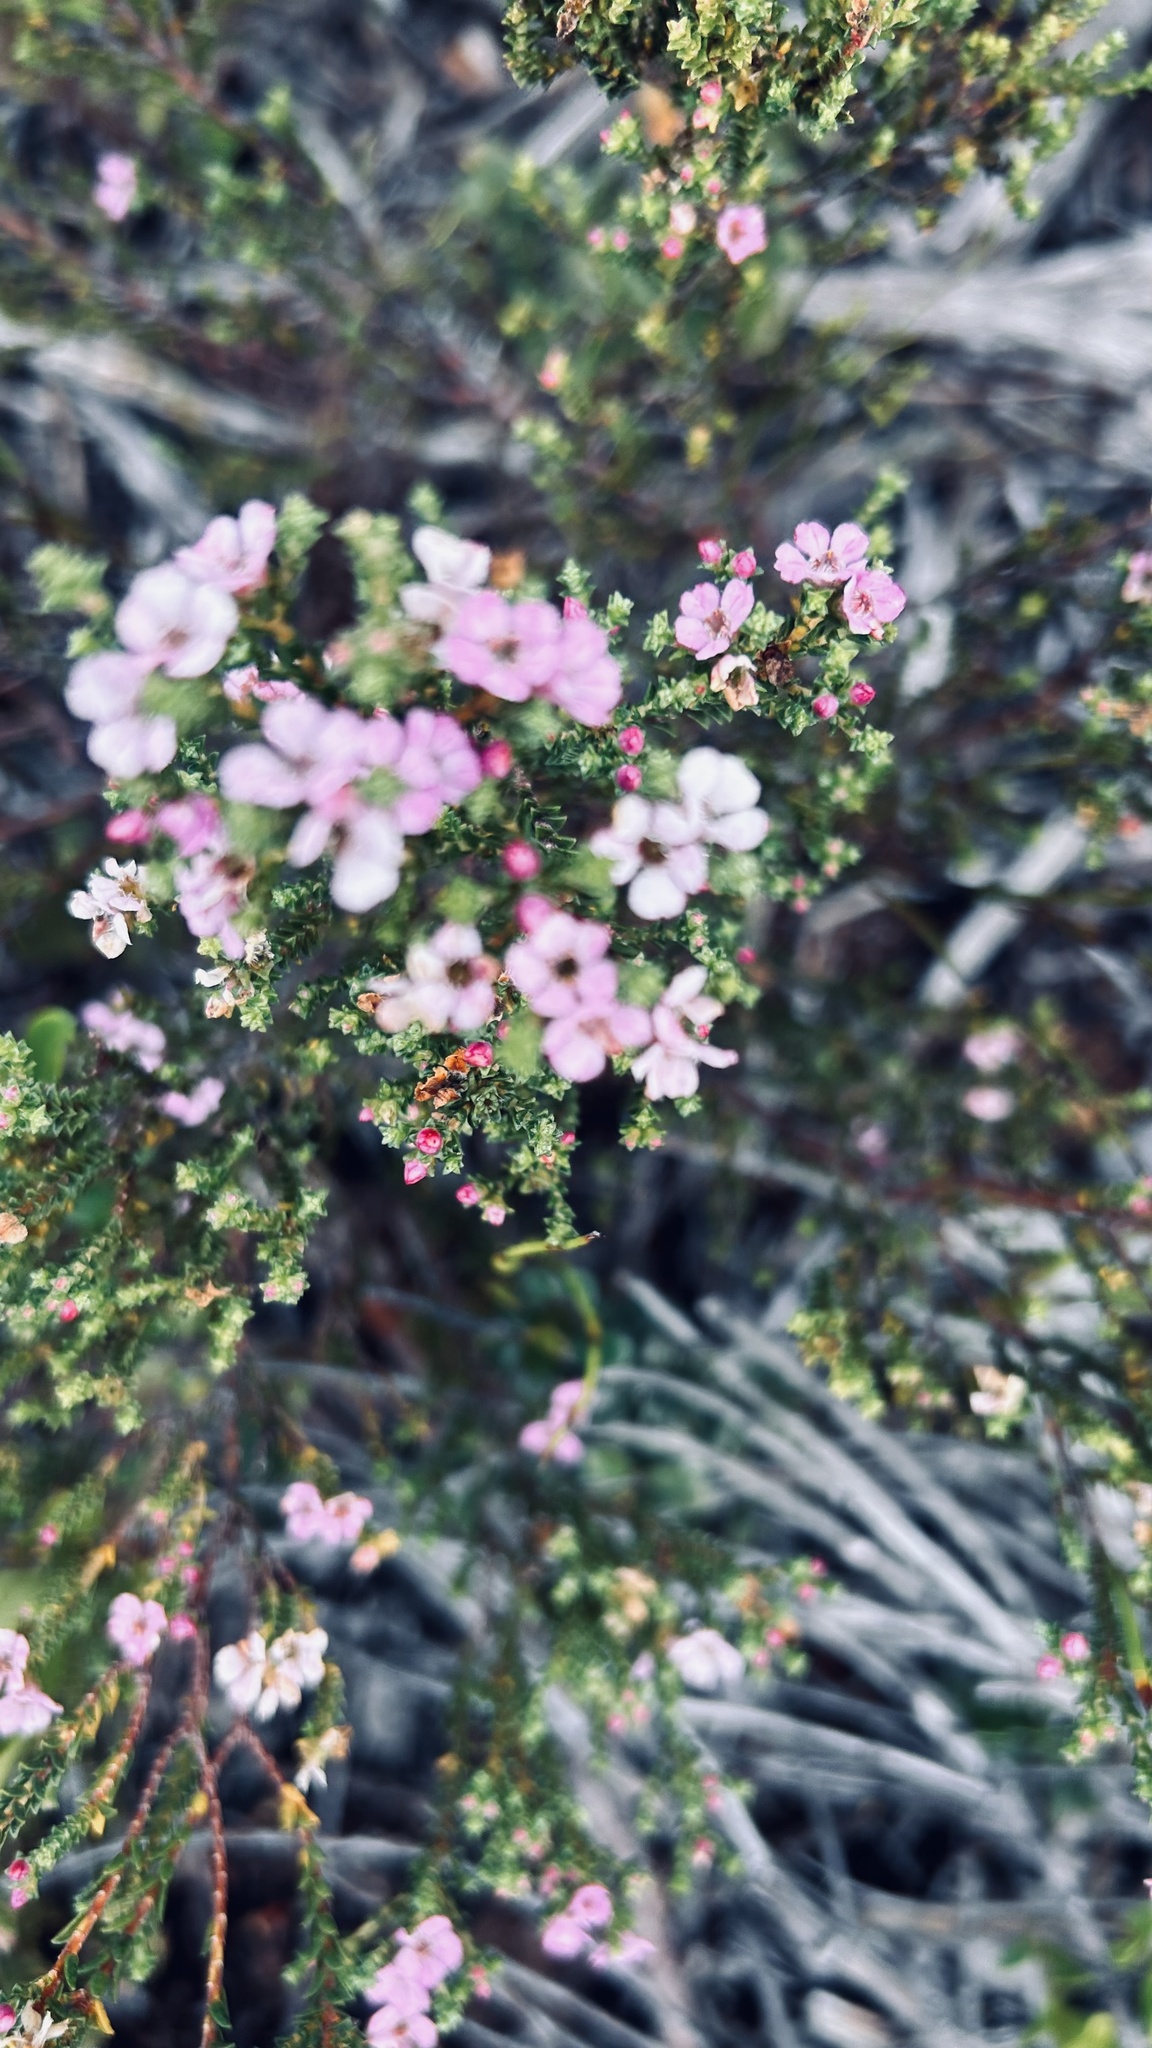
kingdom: Plantae
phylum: Tracheophyta
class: Magnoliopsida
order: Sapindales
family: Rutaceae
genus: Euchaetis
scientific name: Euchaetis albertiniana
